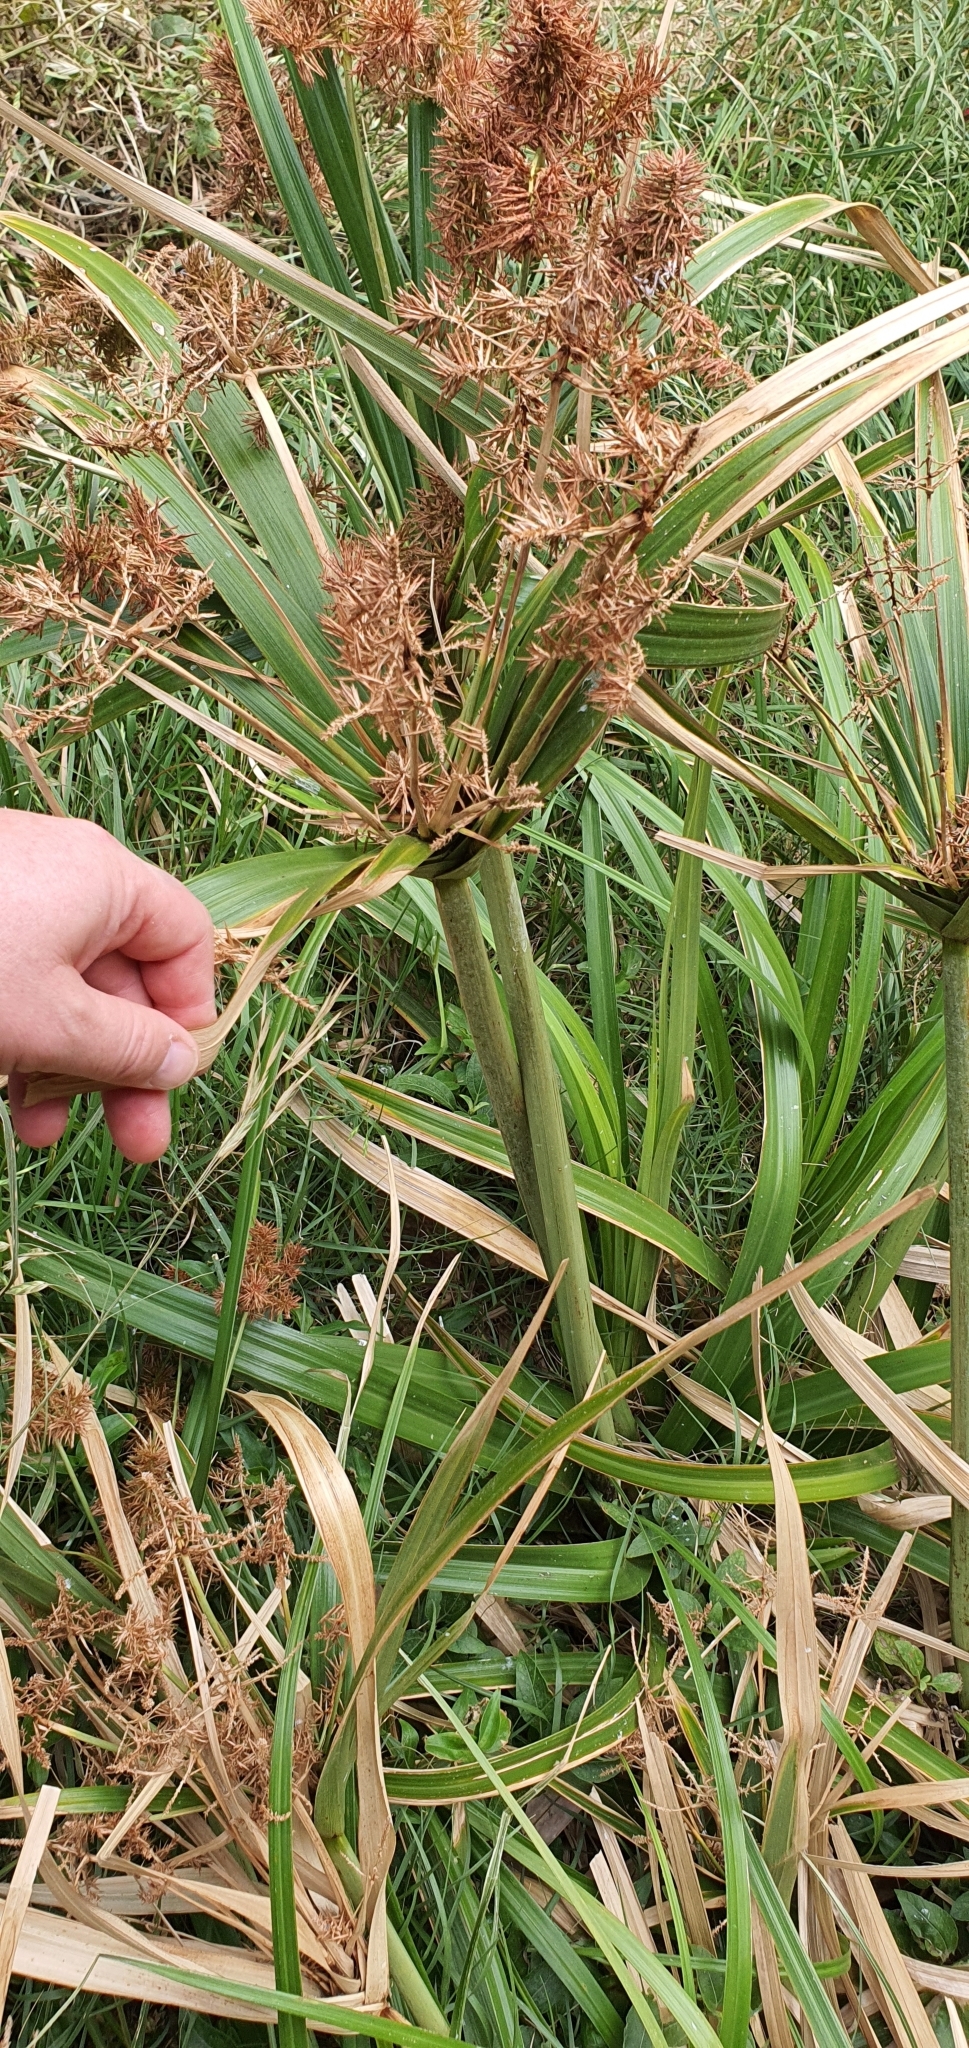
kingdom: Plantae
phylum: Tracheophyta
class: Liliopsida
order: Poales
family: Cyperaceae
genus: Cyperus
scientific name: Cyperus lucidus
